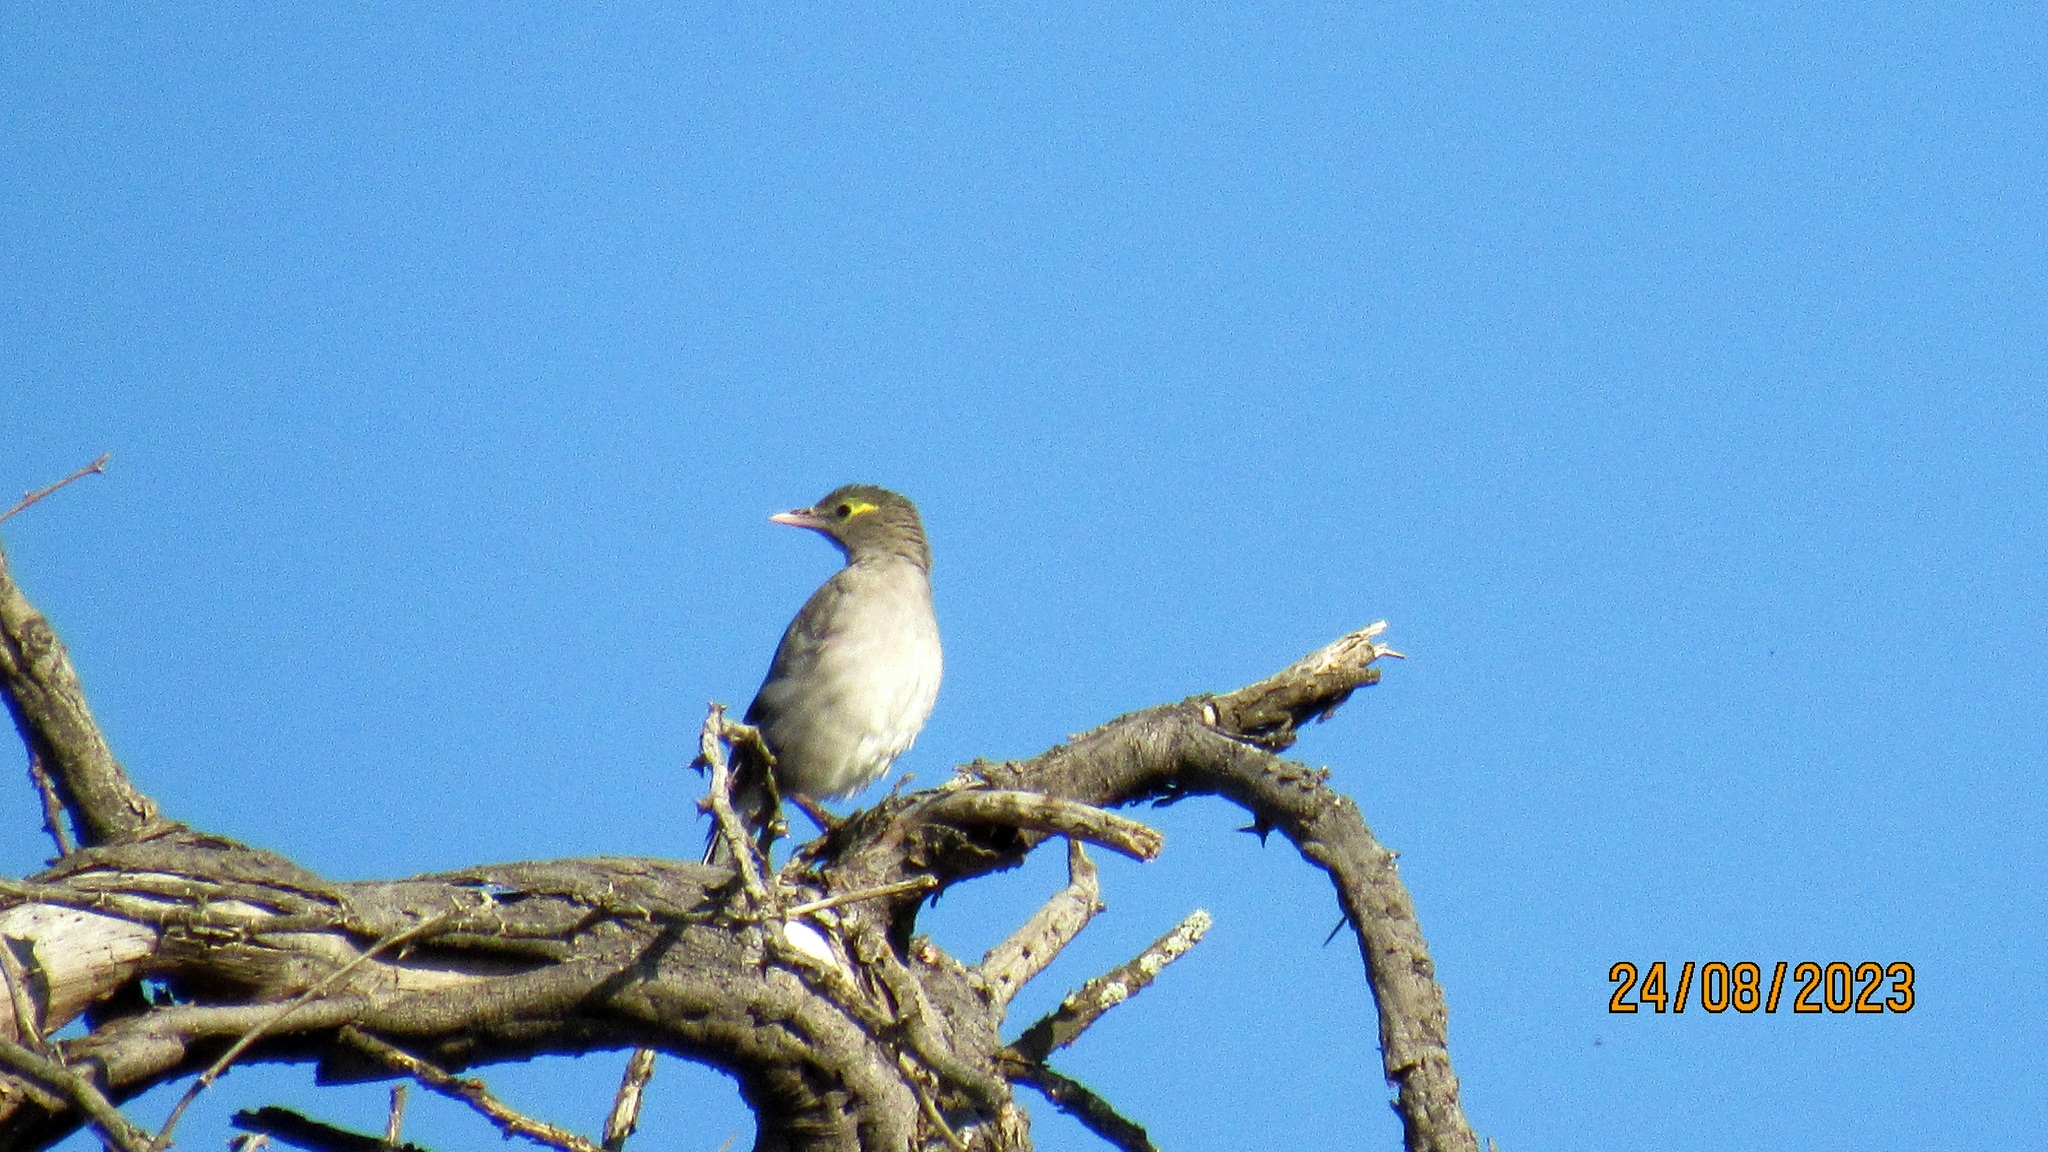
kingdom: Animalia
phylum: Chordata
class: Aves
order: Passeriformes
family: Sturnidae
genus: Creatophora
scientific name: Creatophora cinerea
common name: Wattled starling
